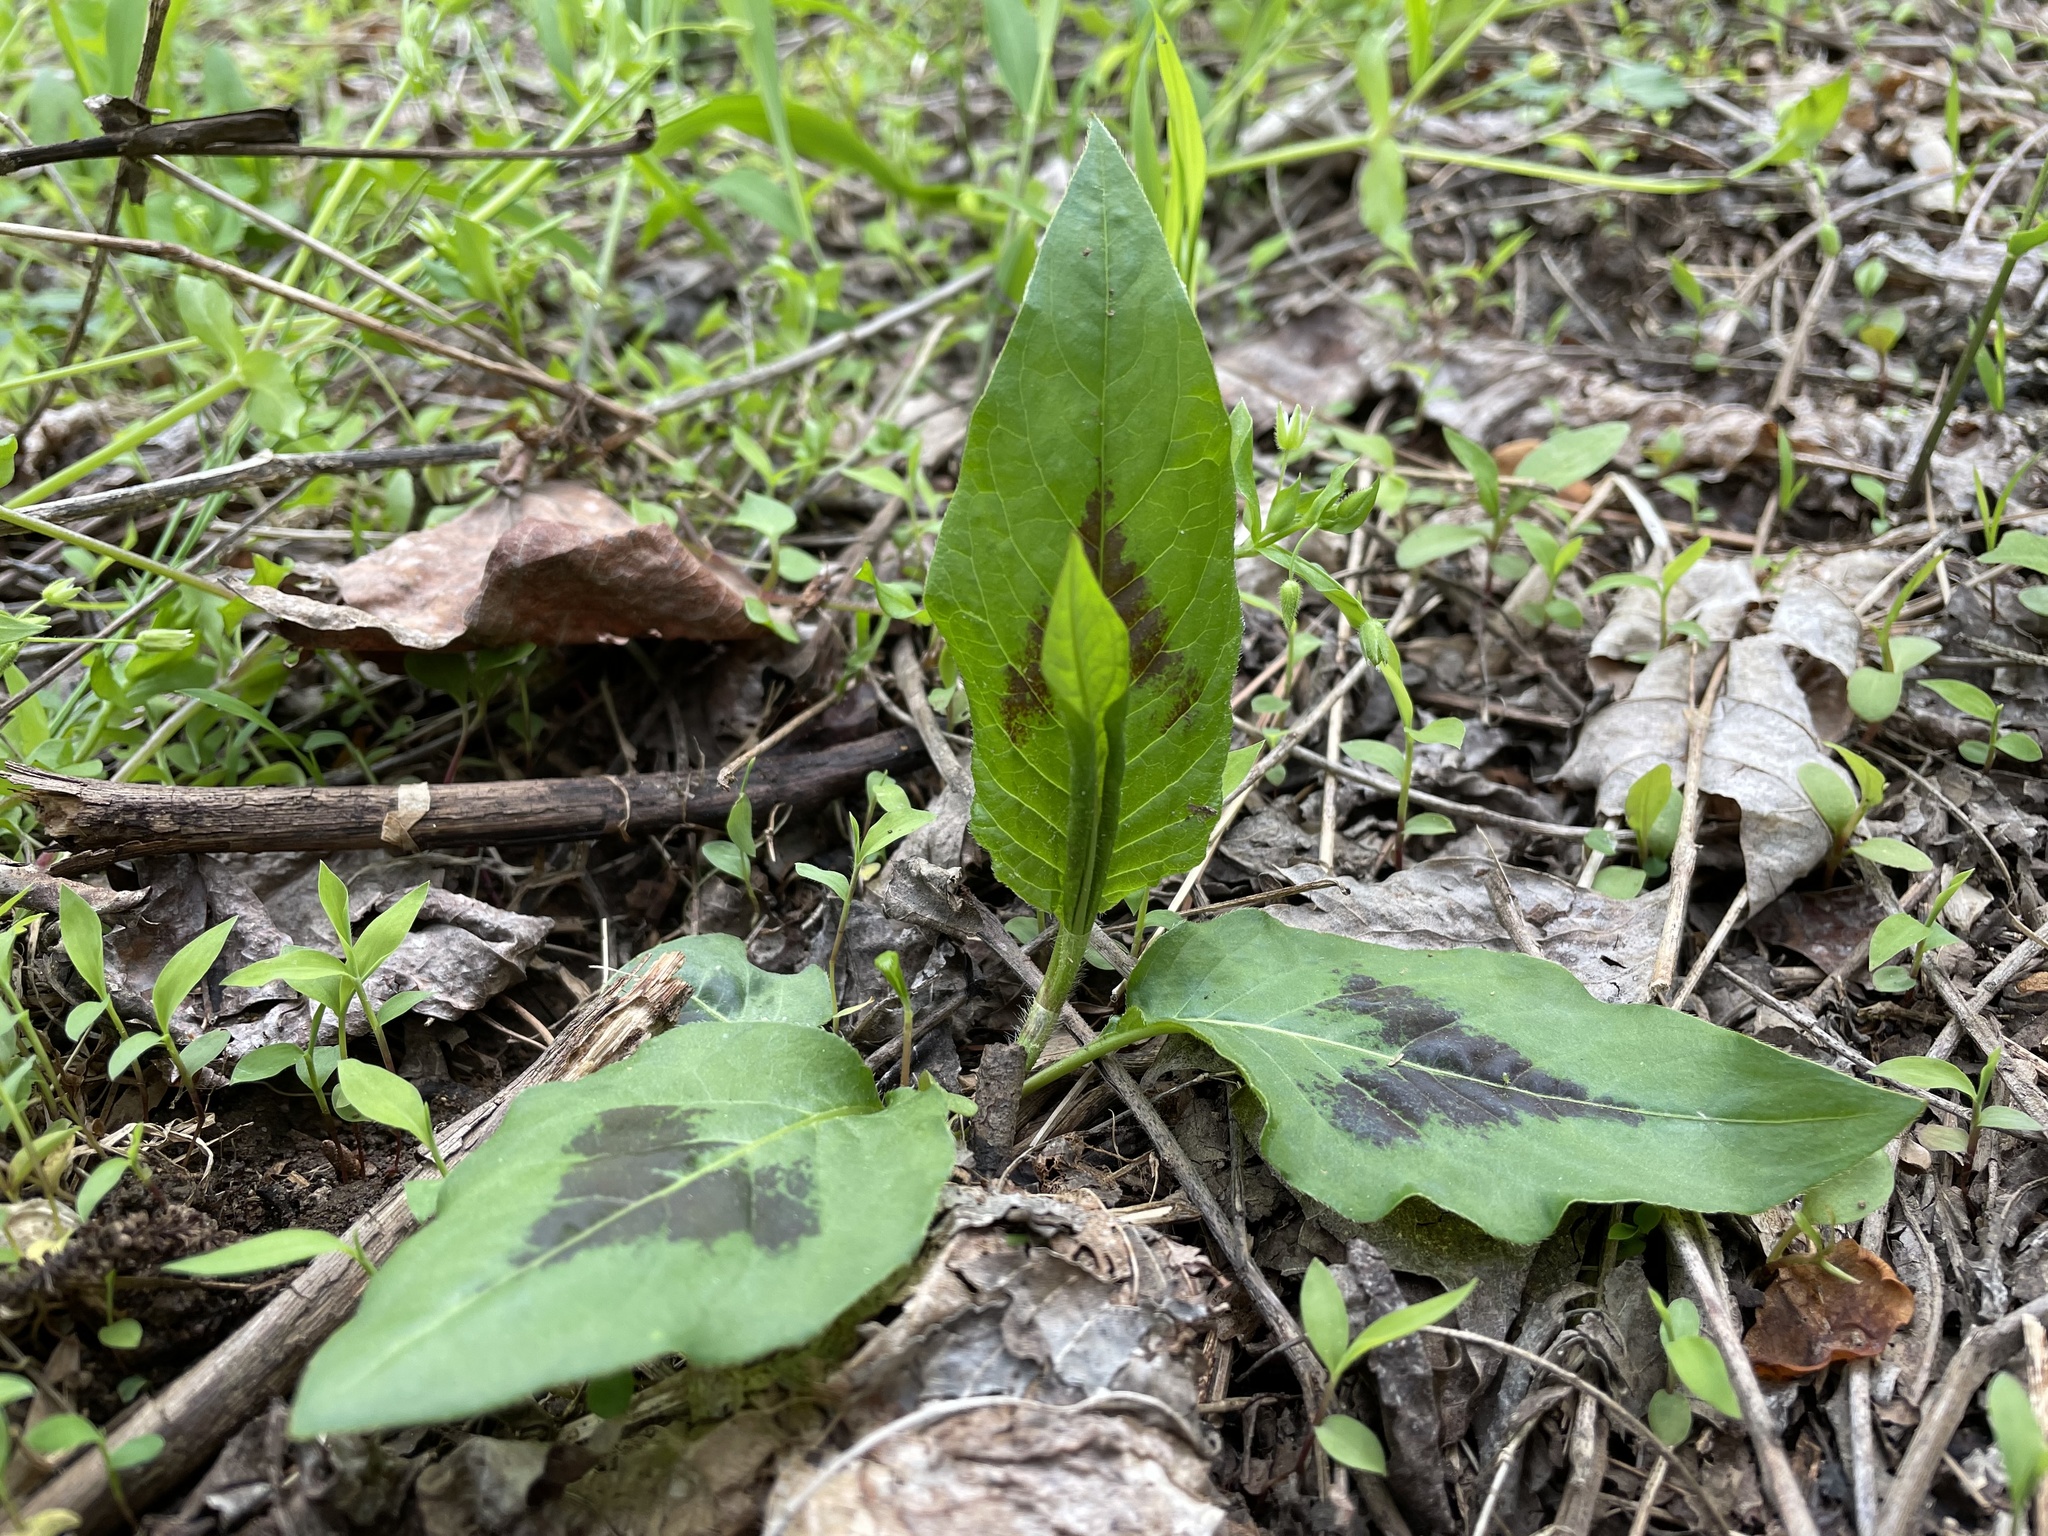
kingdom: Plantae
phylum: Tracheophyta
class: Magnoliopsida
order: Caryophyllales
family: Polygonaceae
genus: Persicaria
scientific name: Persicaria virginiana
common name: Jumpseed
